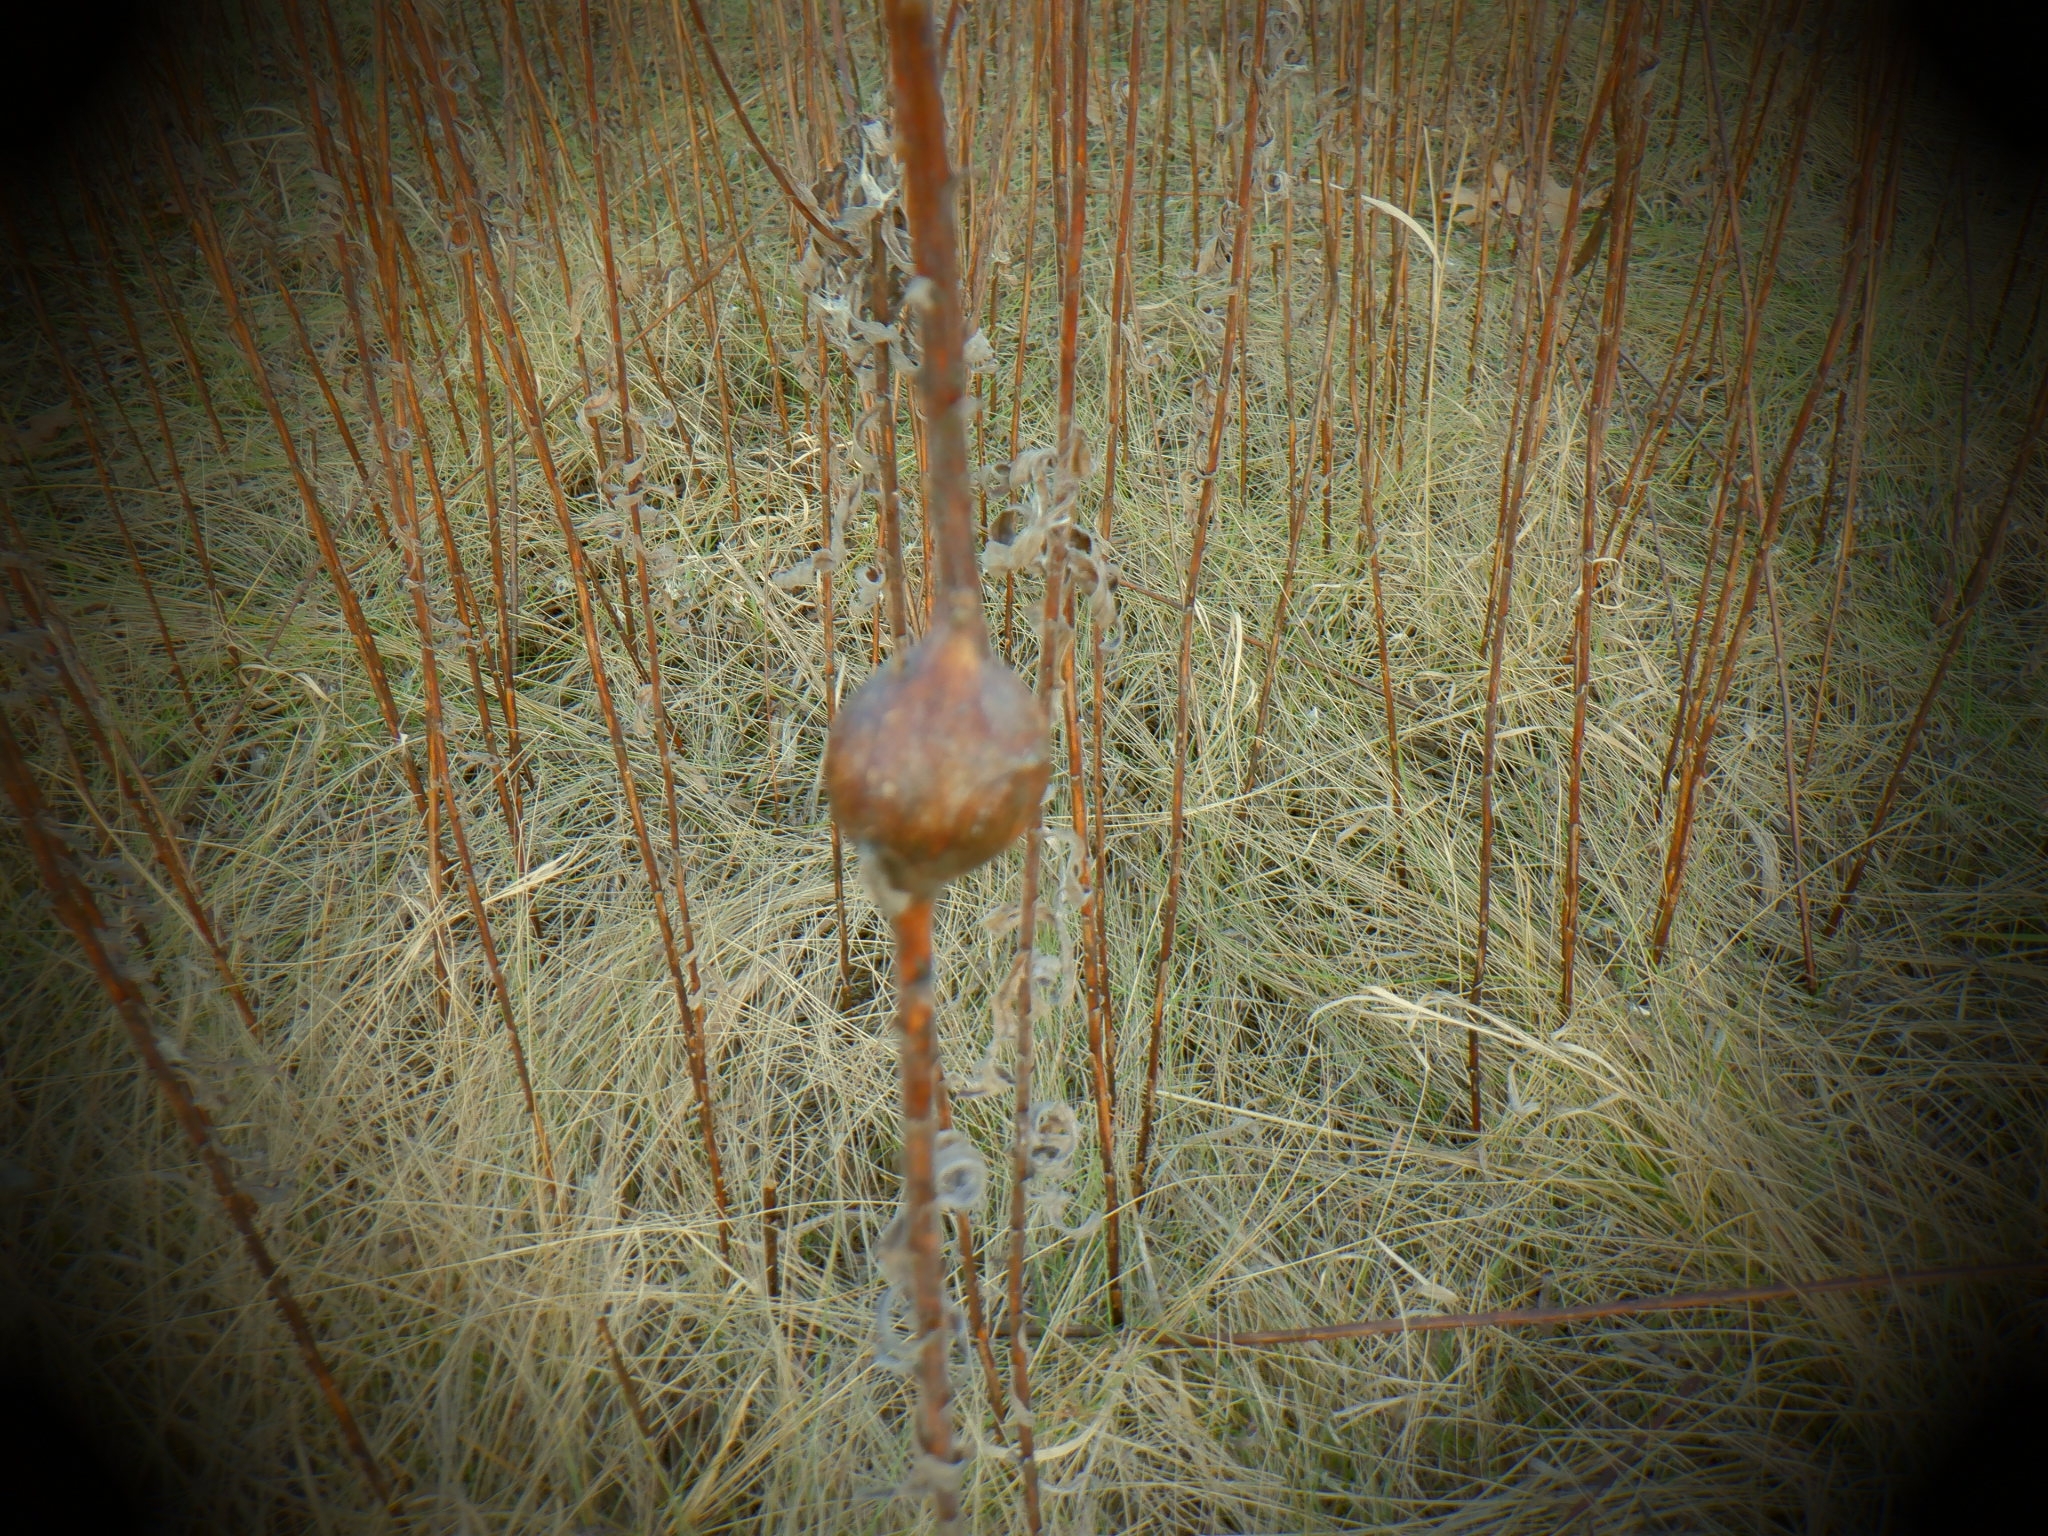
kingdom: Animalia
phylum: Arthropoda
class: Insecta
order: Diptera
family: Tephritidae
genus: Eurosta
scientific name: Eurosta solidaginis
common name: Goldenrod gall fly
